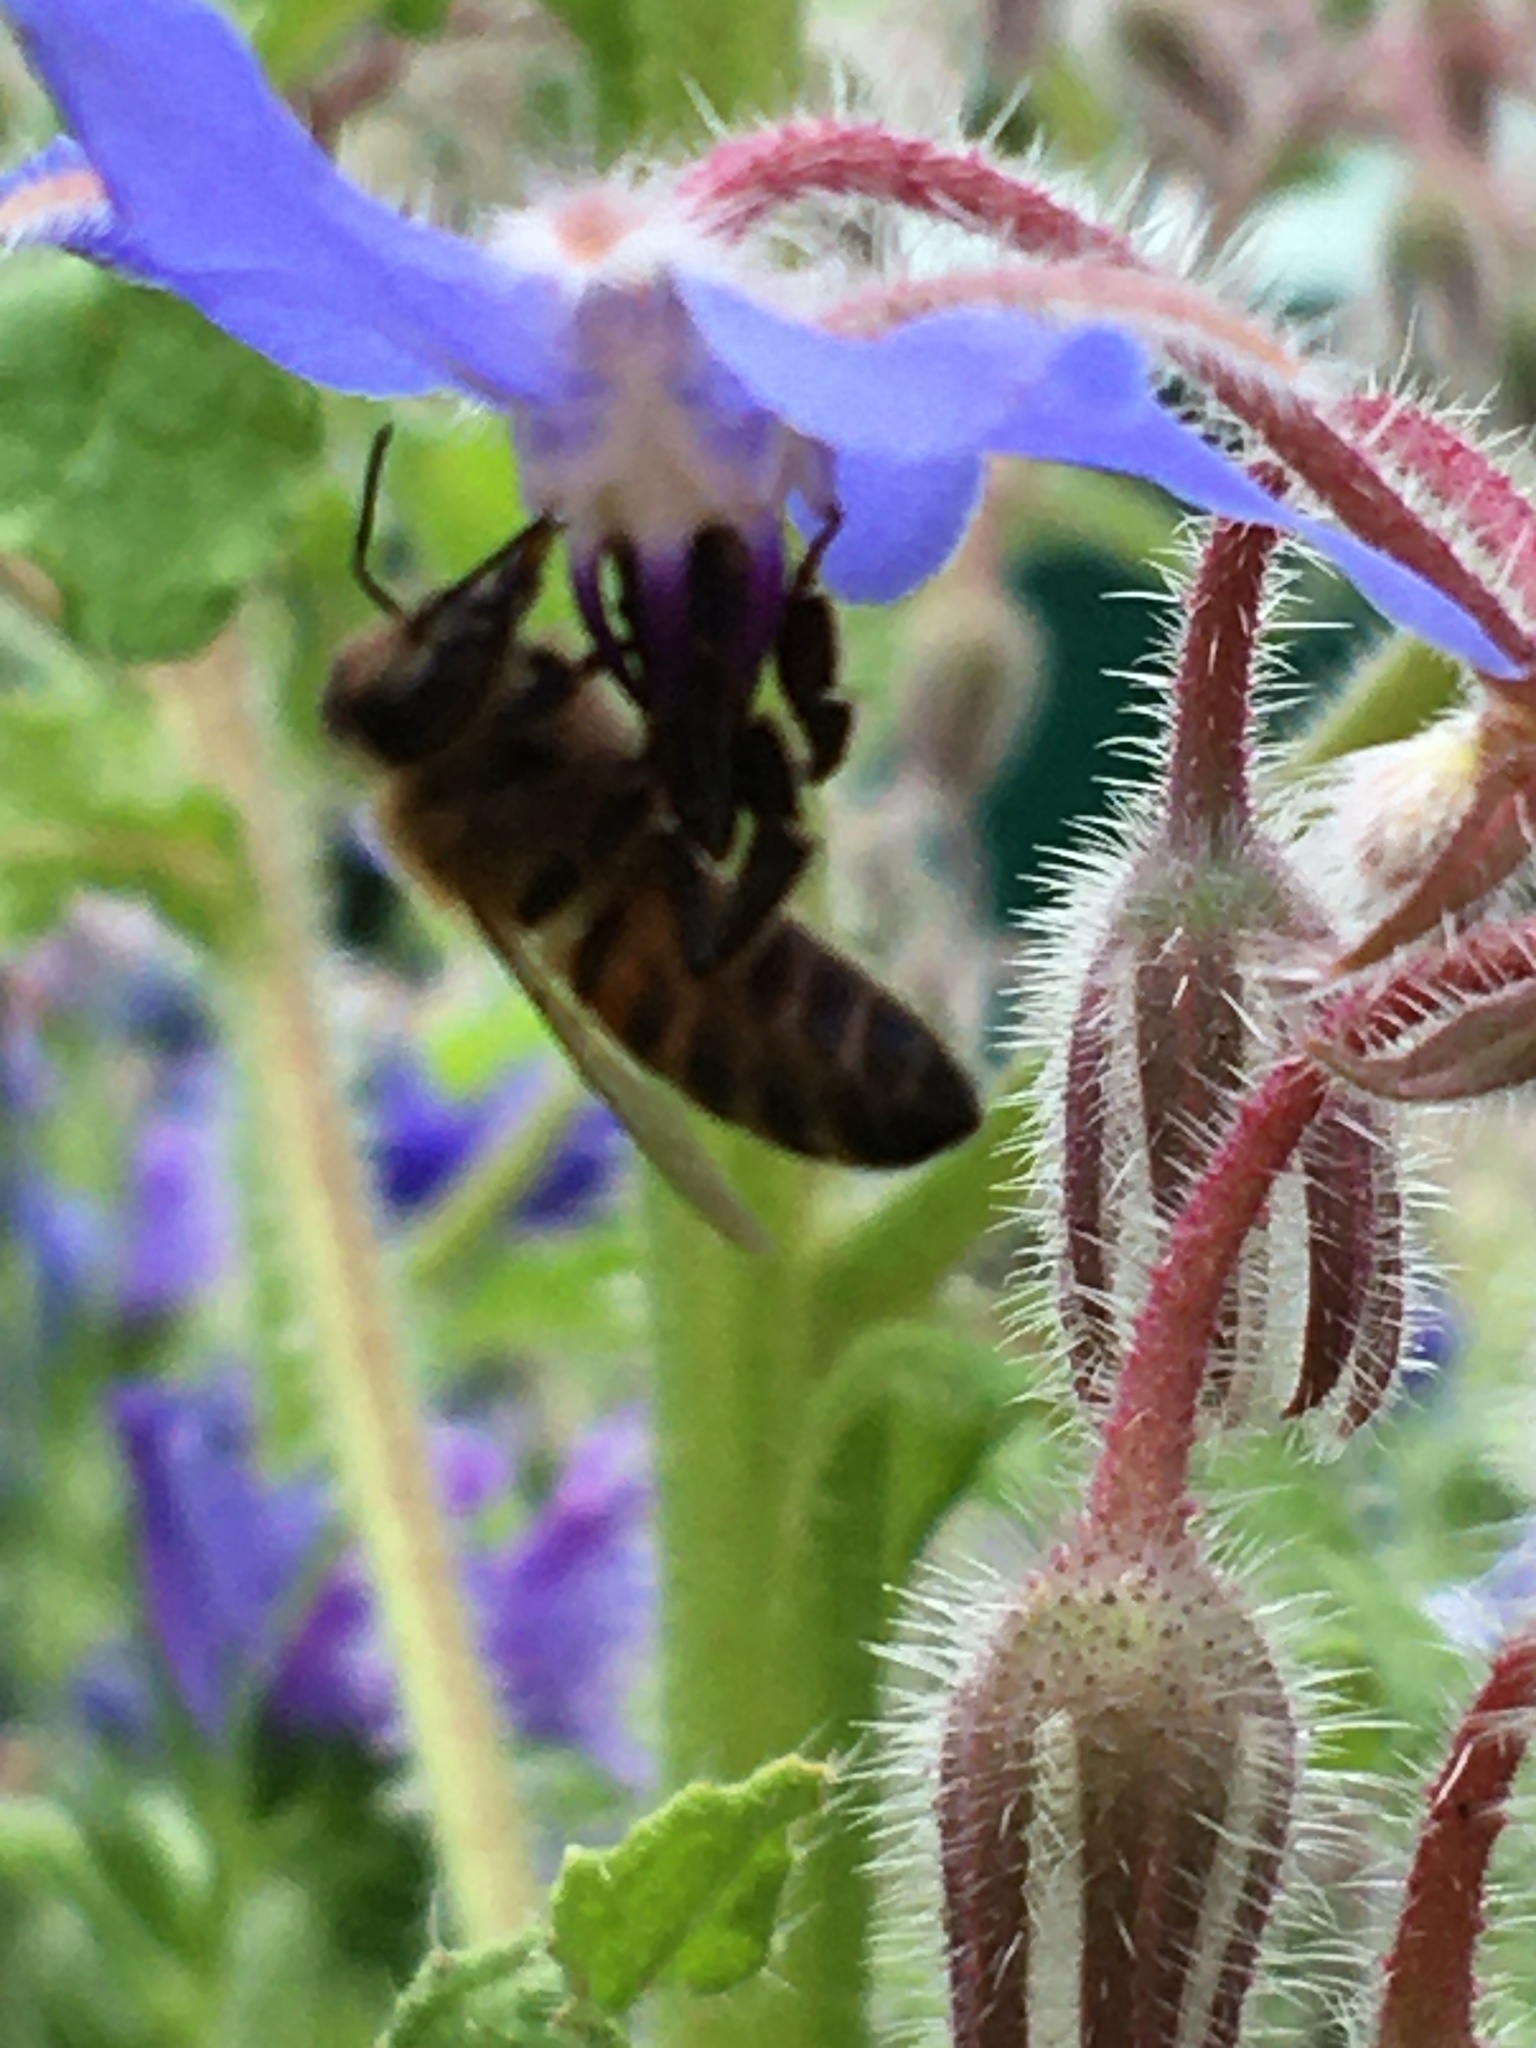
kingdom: Animalia
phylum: Arthropoda
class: Insecta
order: Hymenoptera
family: Apidae
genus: Apis
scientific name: Apis mellifera
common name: Honey bee
